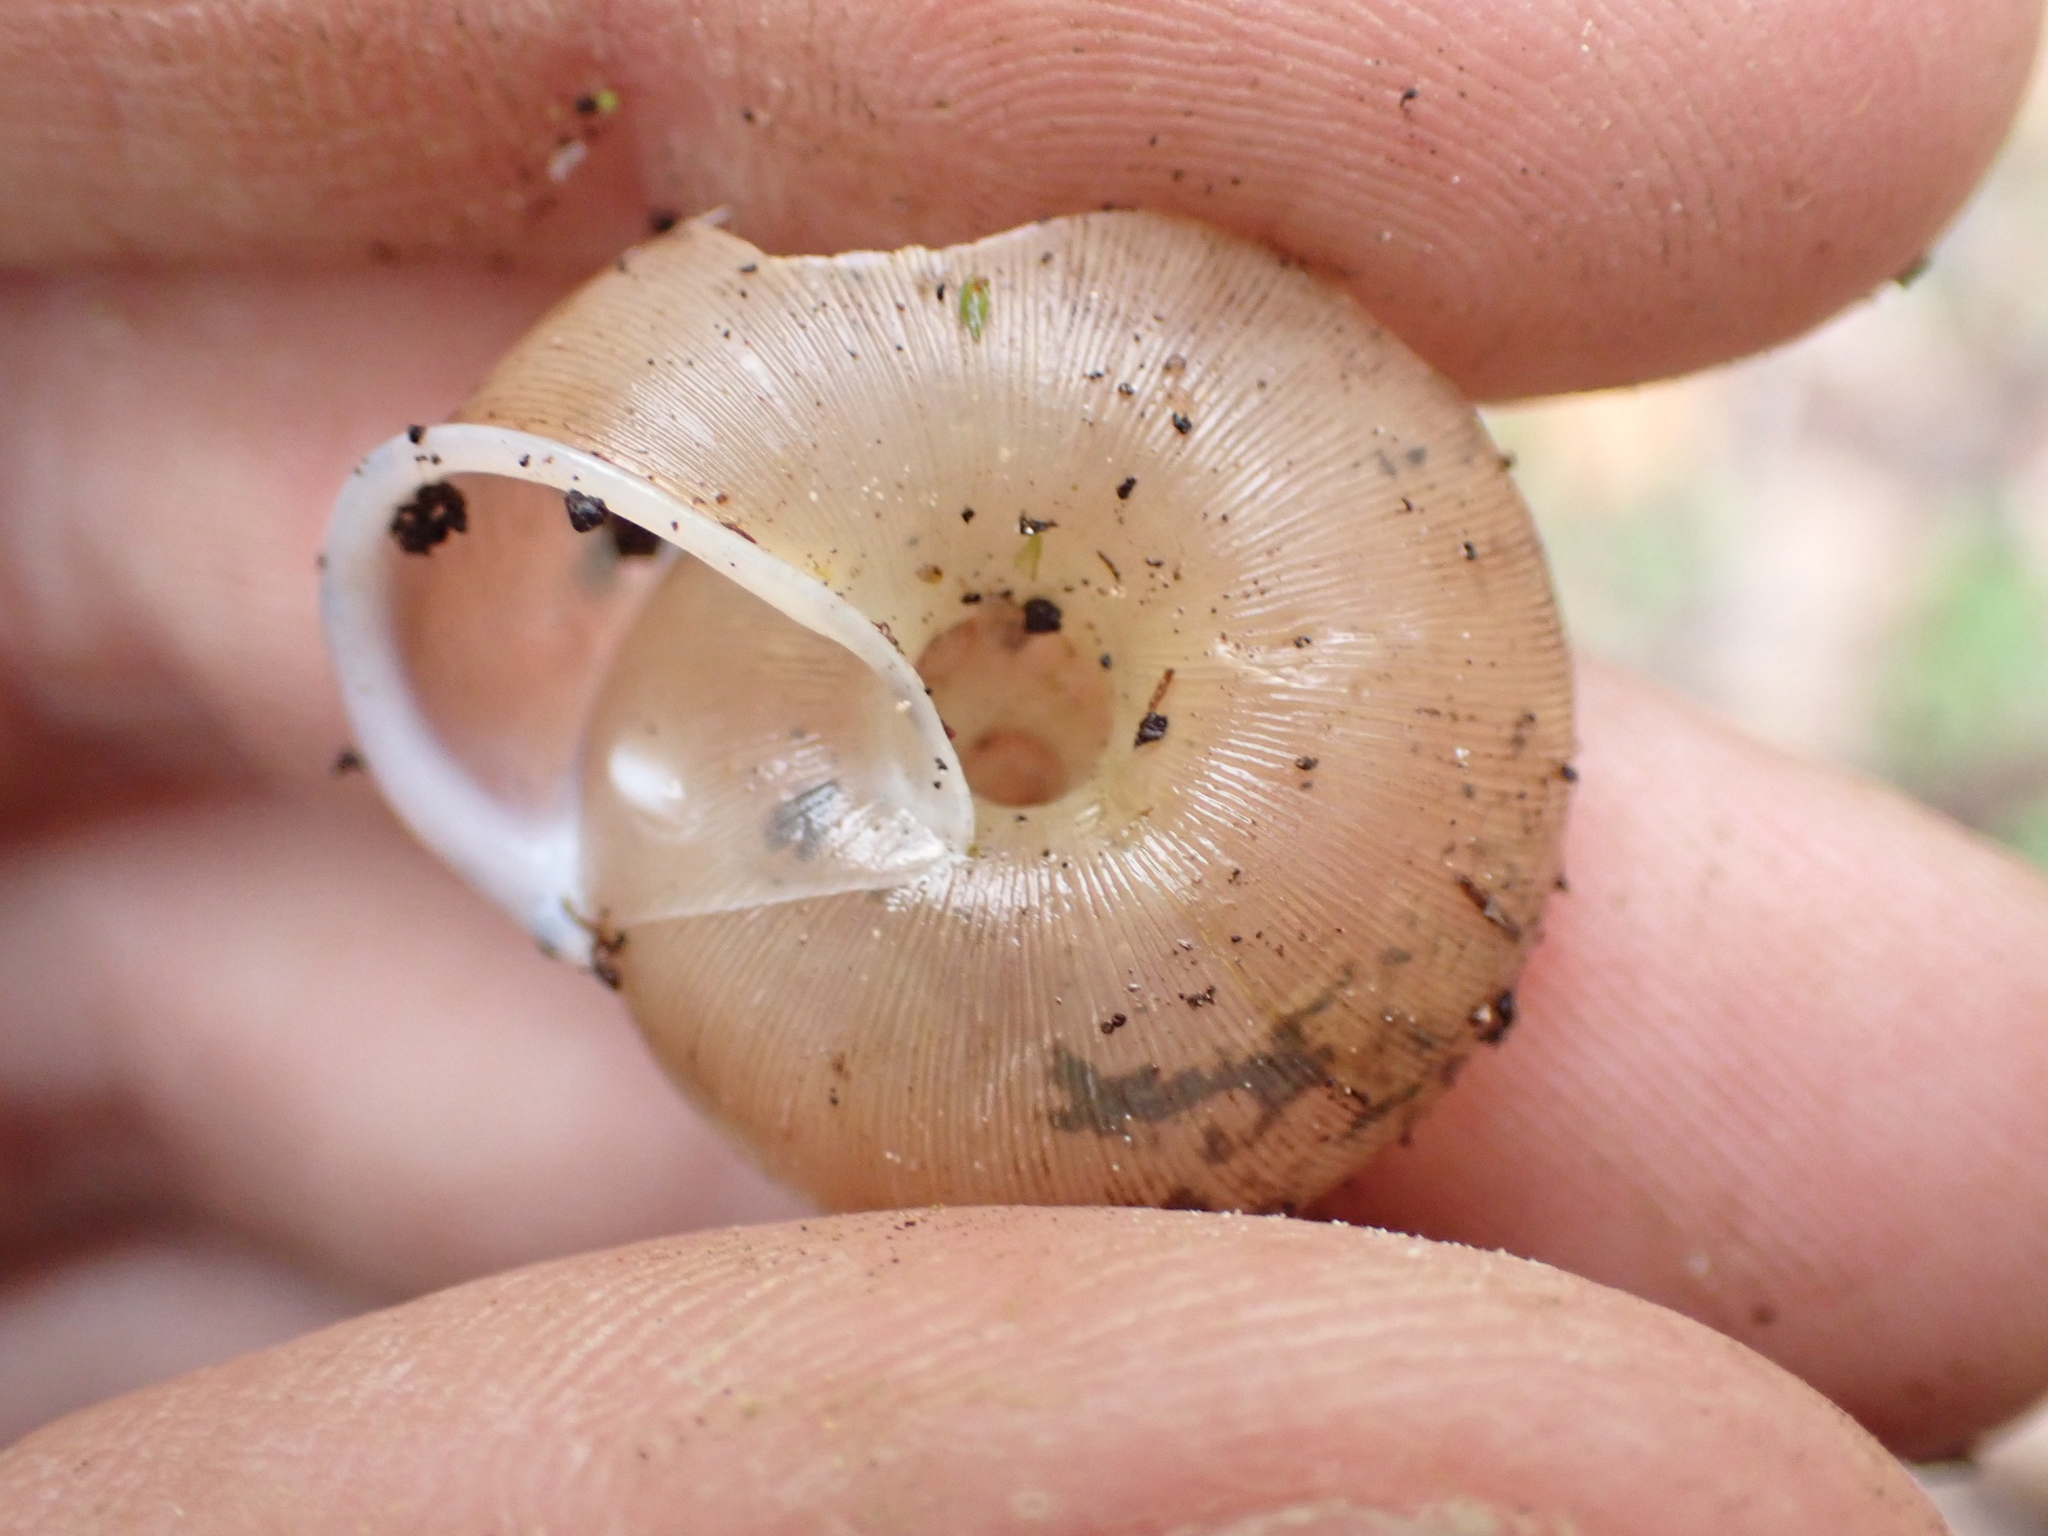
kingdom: Animalia
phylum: Mollusca
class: Gastropoda
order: Stylommatophora
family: Polygyridae
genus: Appalachina
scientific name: Appalachina sayana
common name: Spike-lip crater
